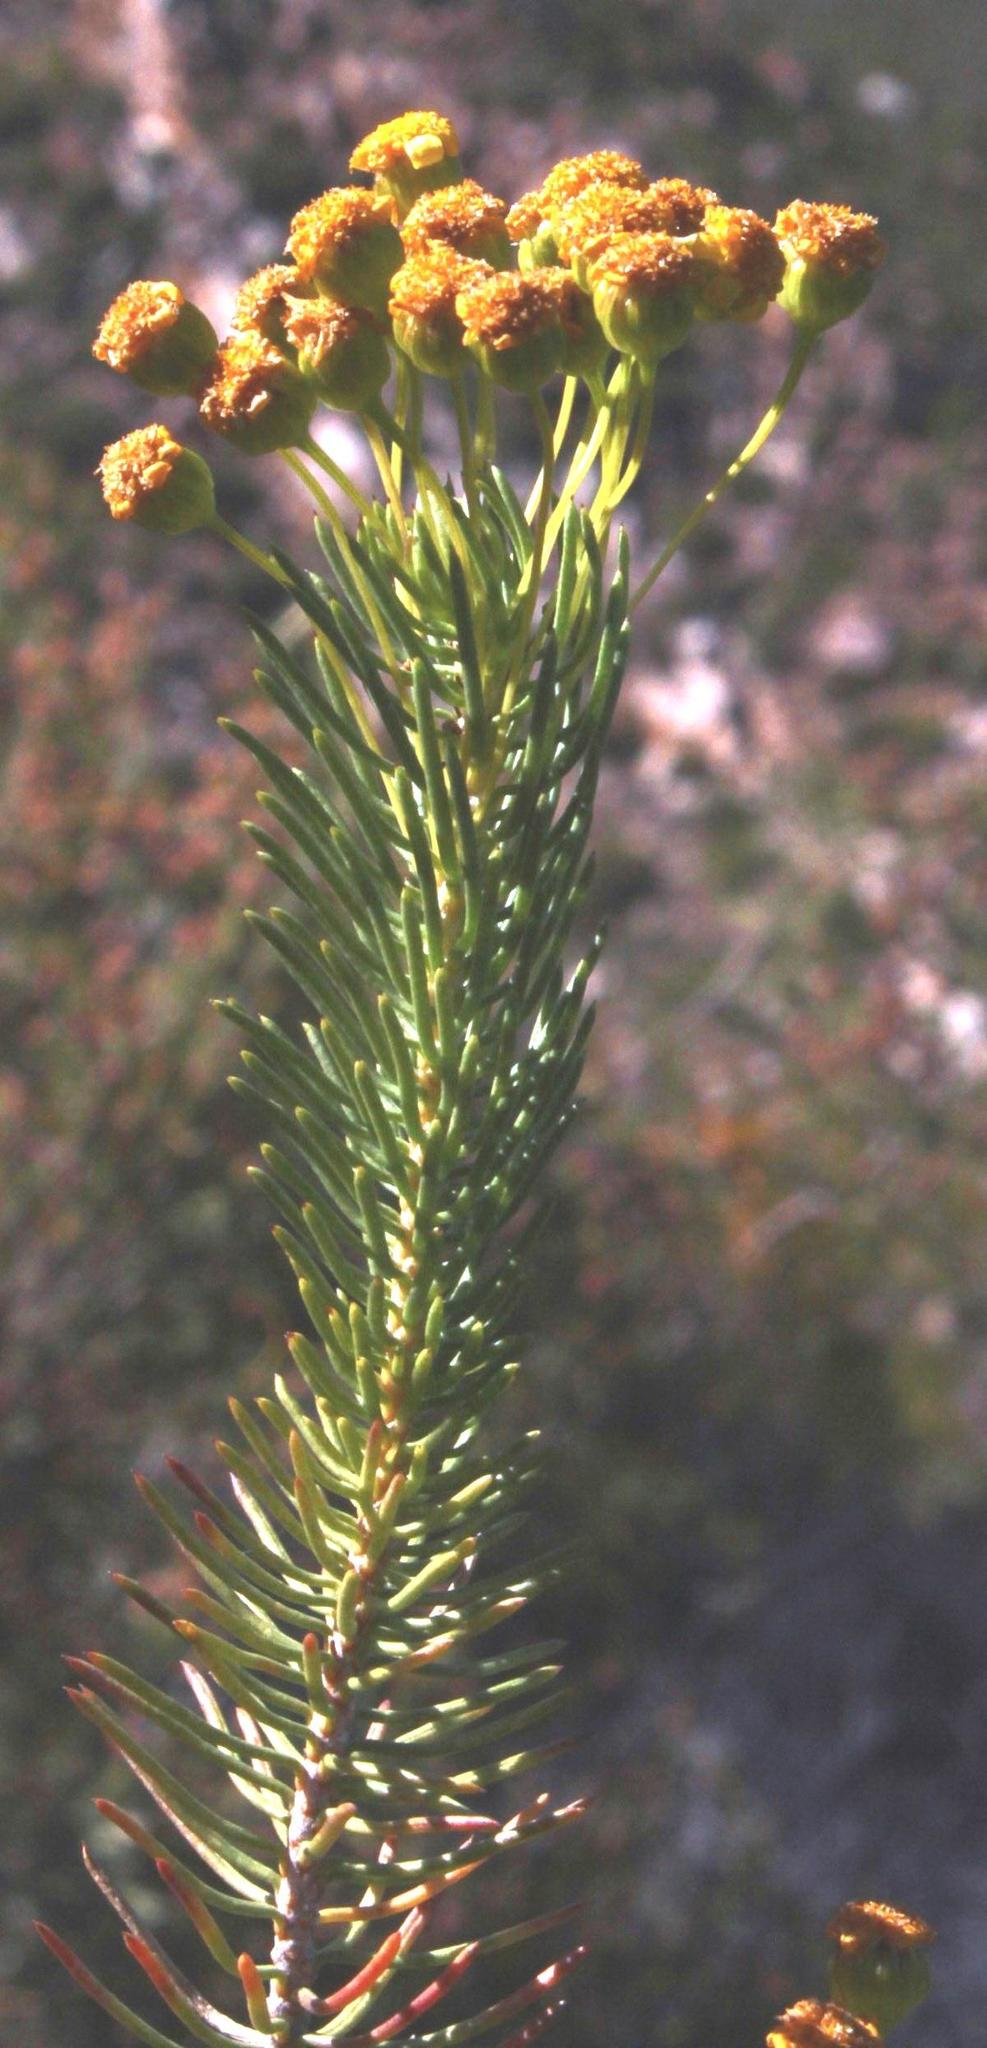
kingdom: Plantae
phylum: Tracheophyta
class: Magnoliopsida
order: Asterales
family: Asteraceae
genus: Euryops
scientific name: Euryops rehmannii
